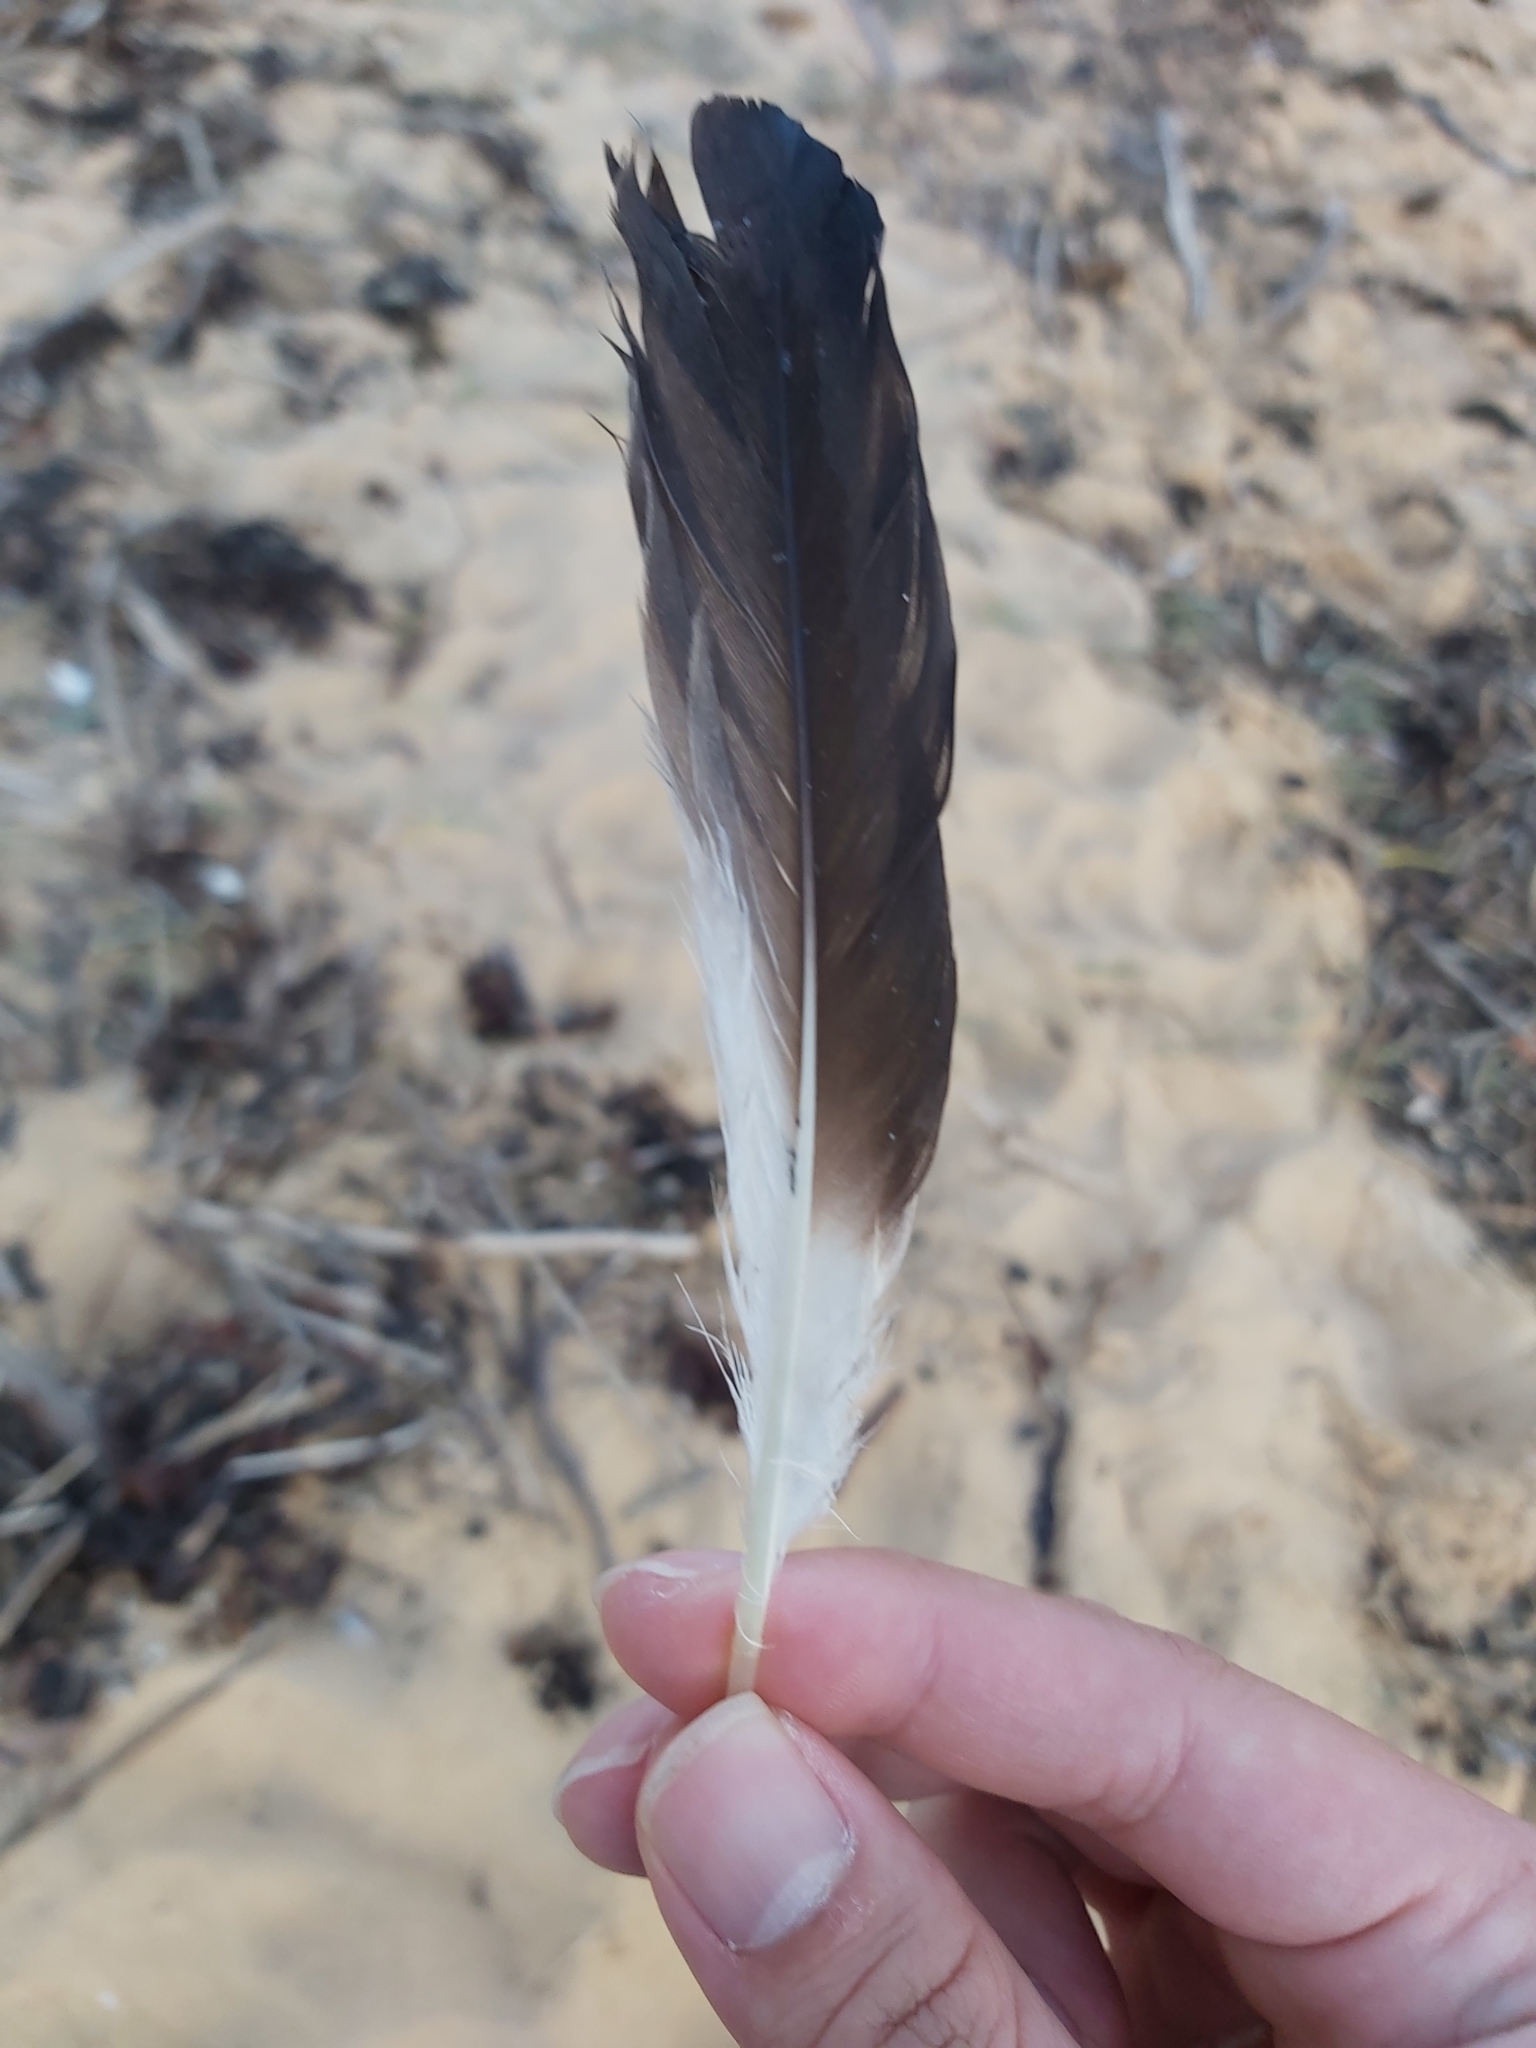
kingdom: Animalia
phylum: Chordata
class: Aves
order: Suliformes
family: Sulidae
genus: Morus
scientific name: Morus serrator
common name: Australasian gannet
